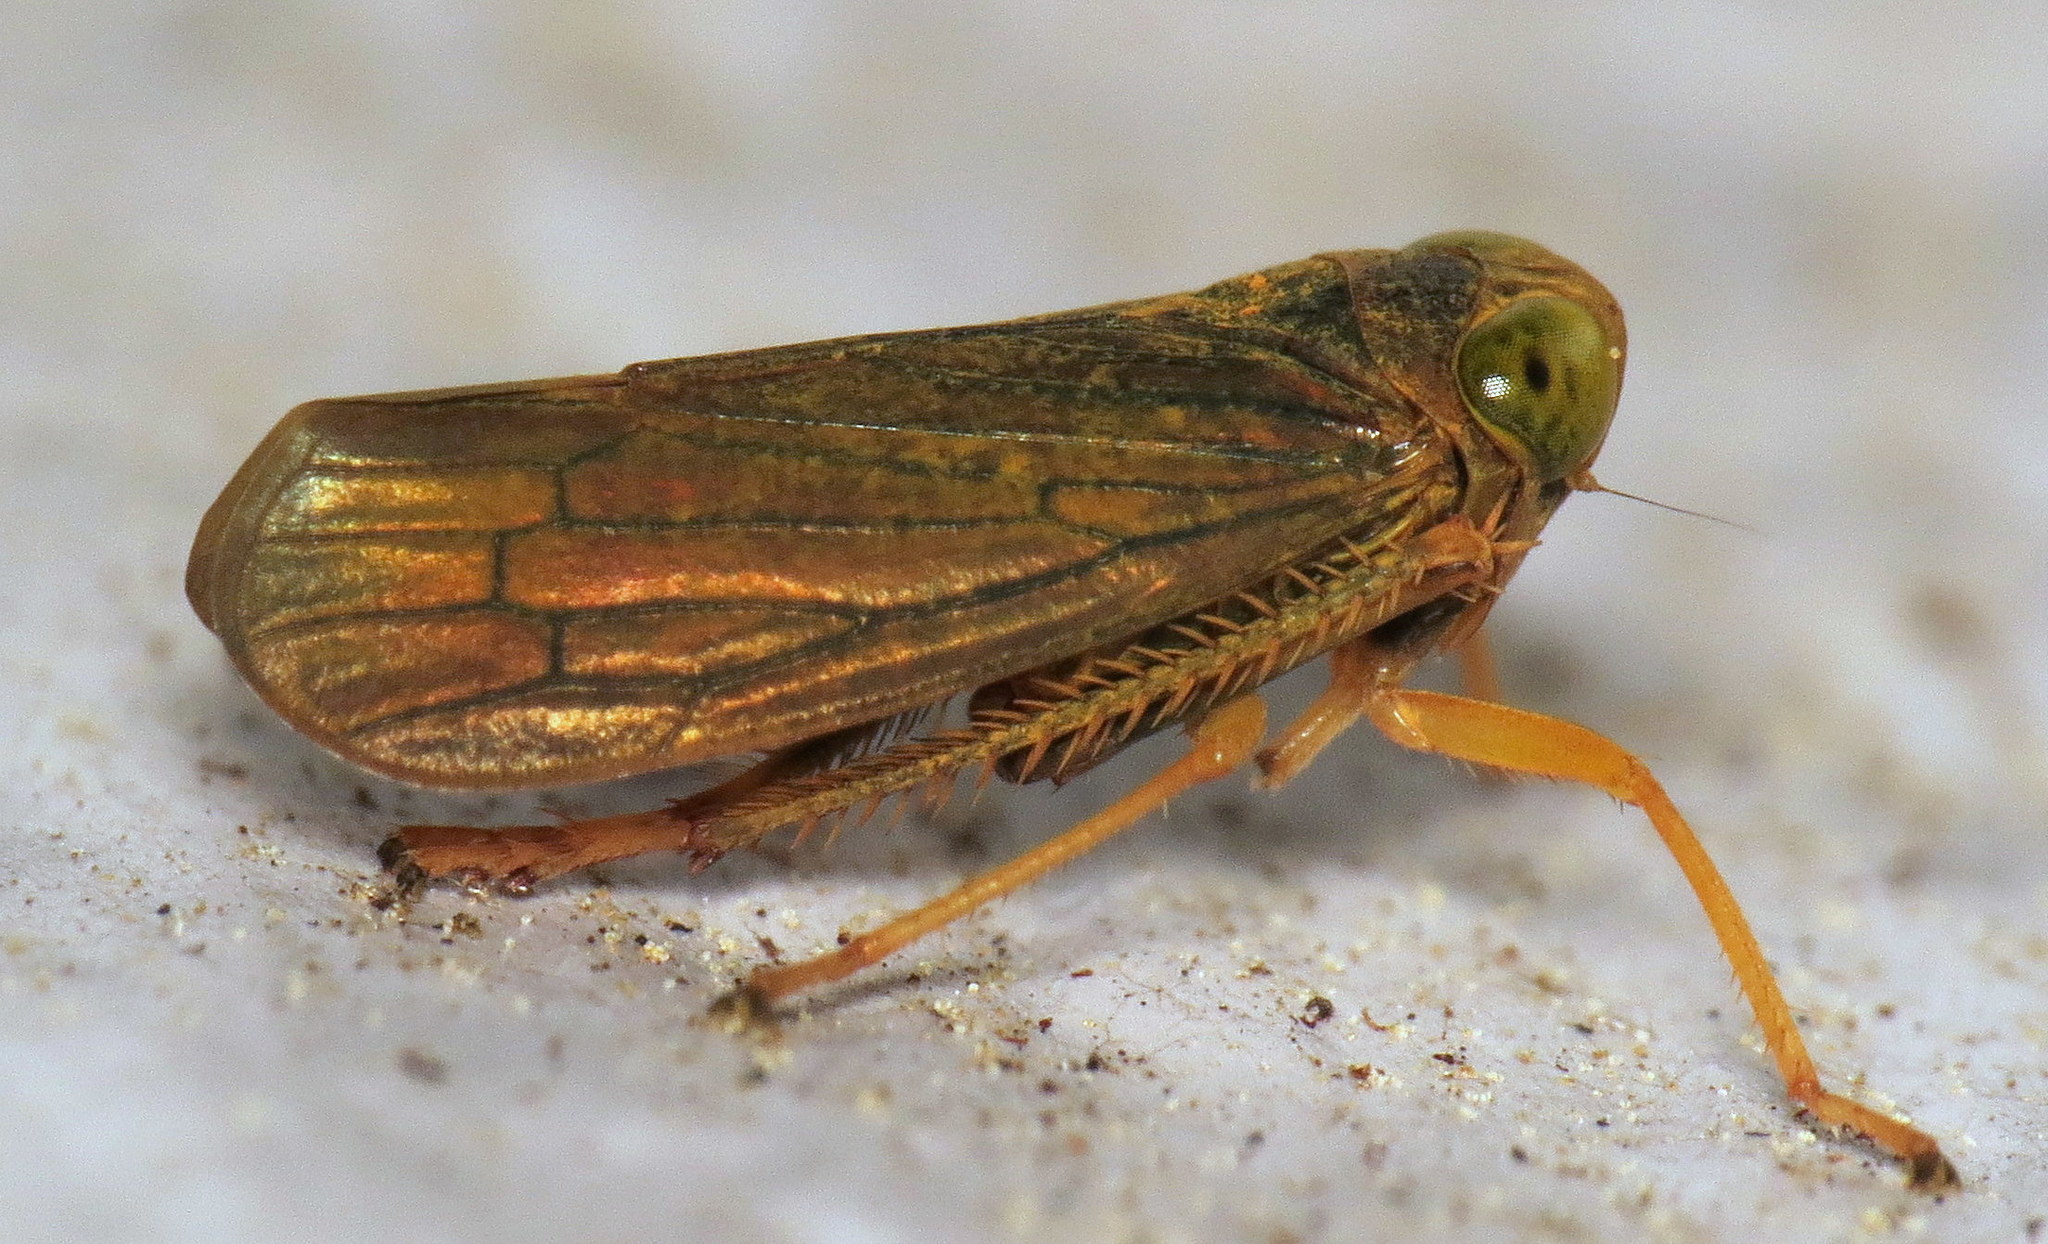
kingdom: Animalia
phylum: Arthropoda
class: Insecta
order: Hemiptera
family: Cicadellidae
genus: Jikradia
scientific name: Jikradia olitoria
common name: Coppery leafhopper
